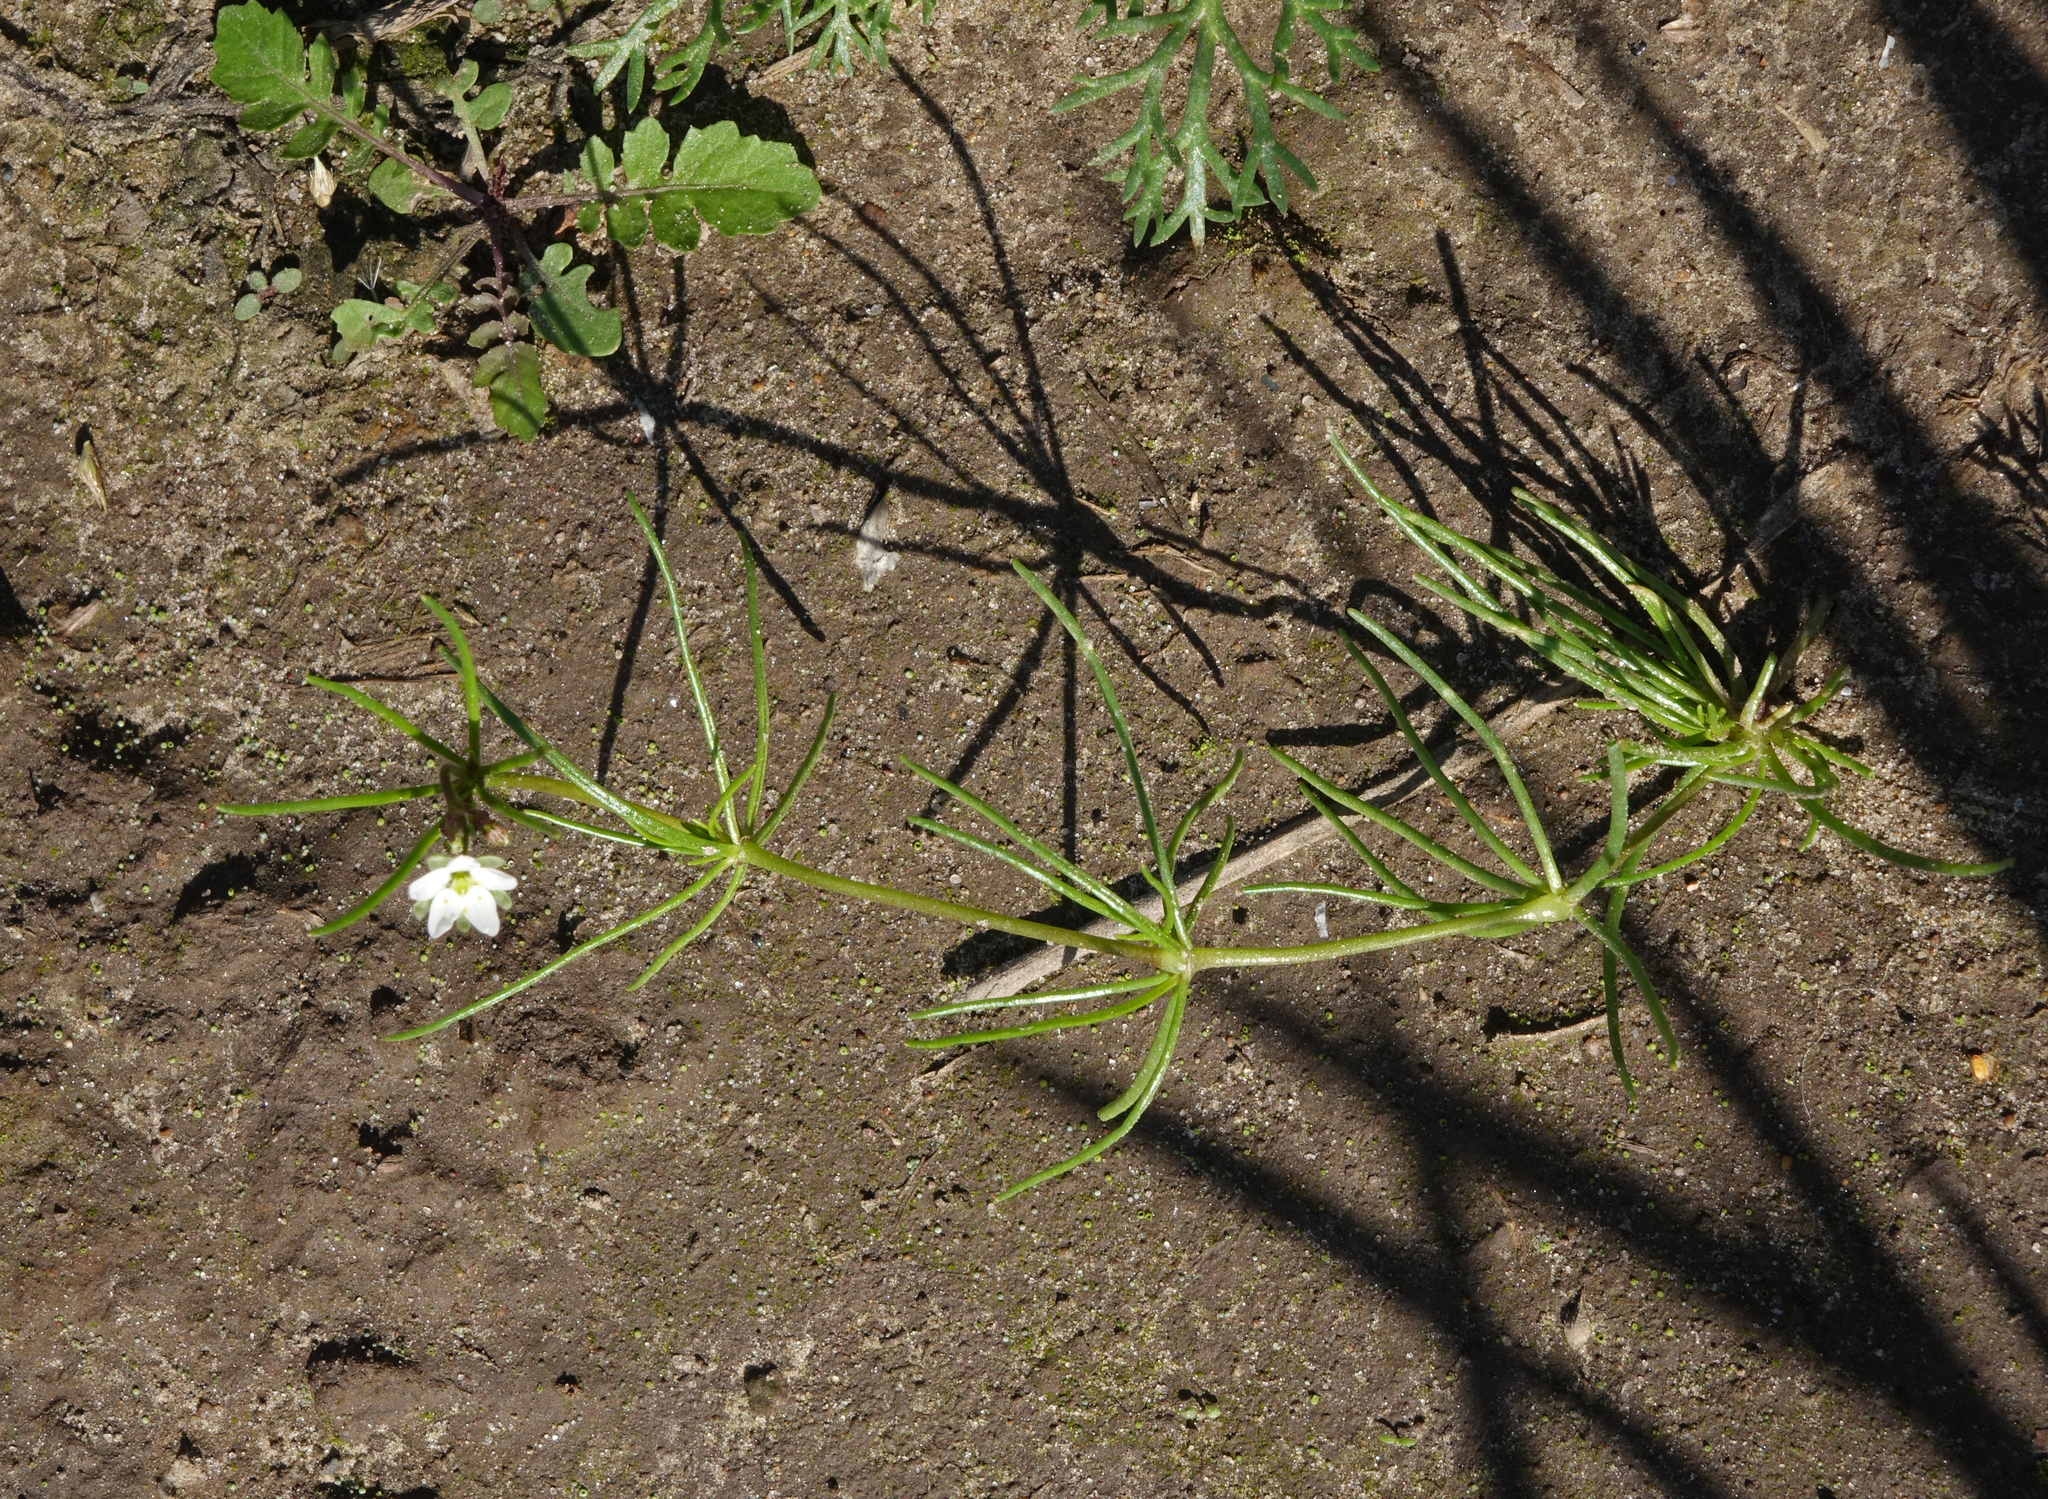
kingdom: Plantae
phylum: Tracheophyta
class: Magnoliopsida
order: Caryophyllales
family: Caryophyllaceae
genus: Spergula
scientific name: Spergula arvensis
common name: Corn spurrey
